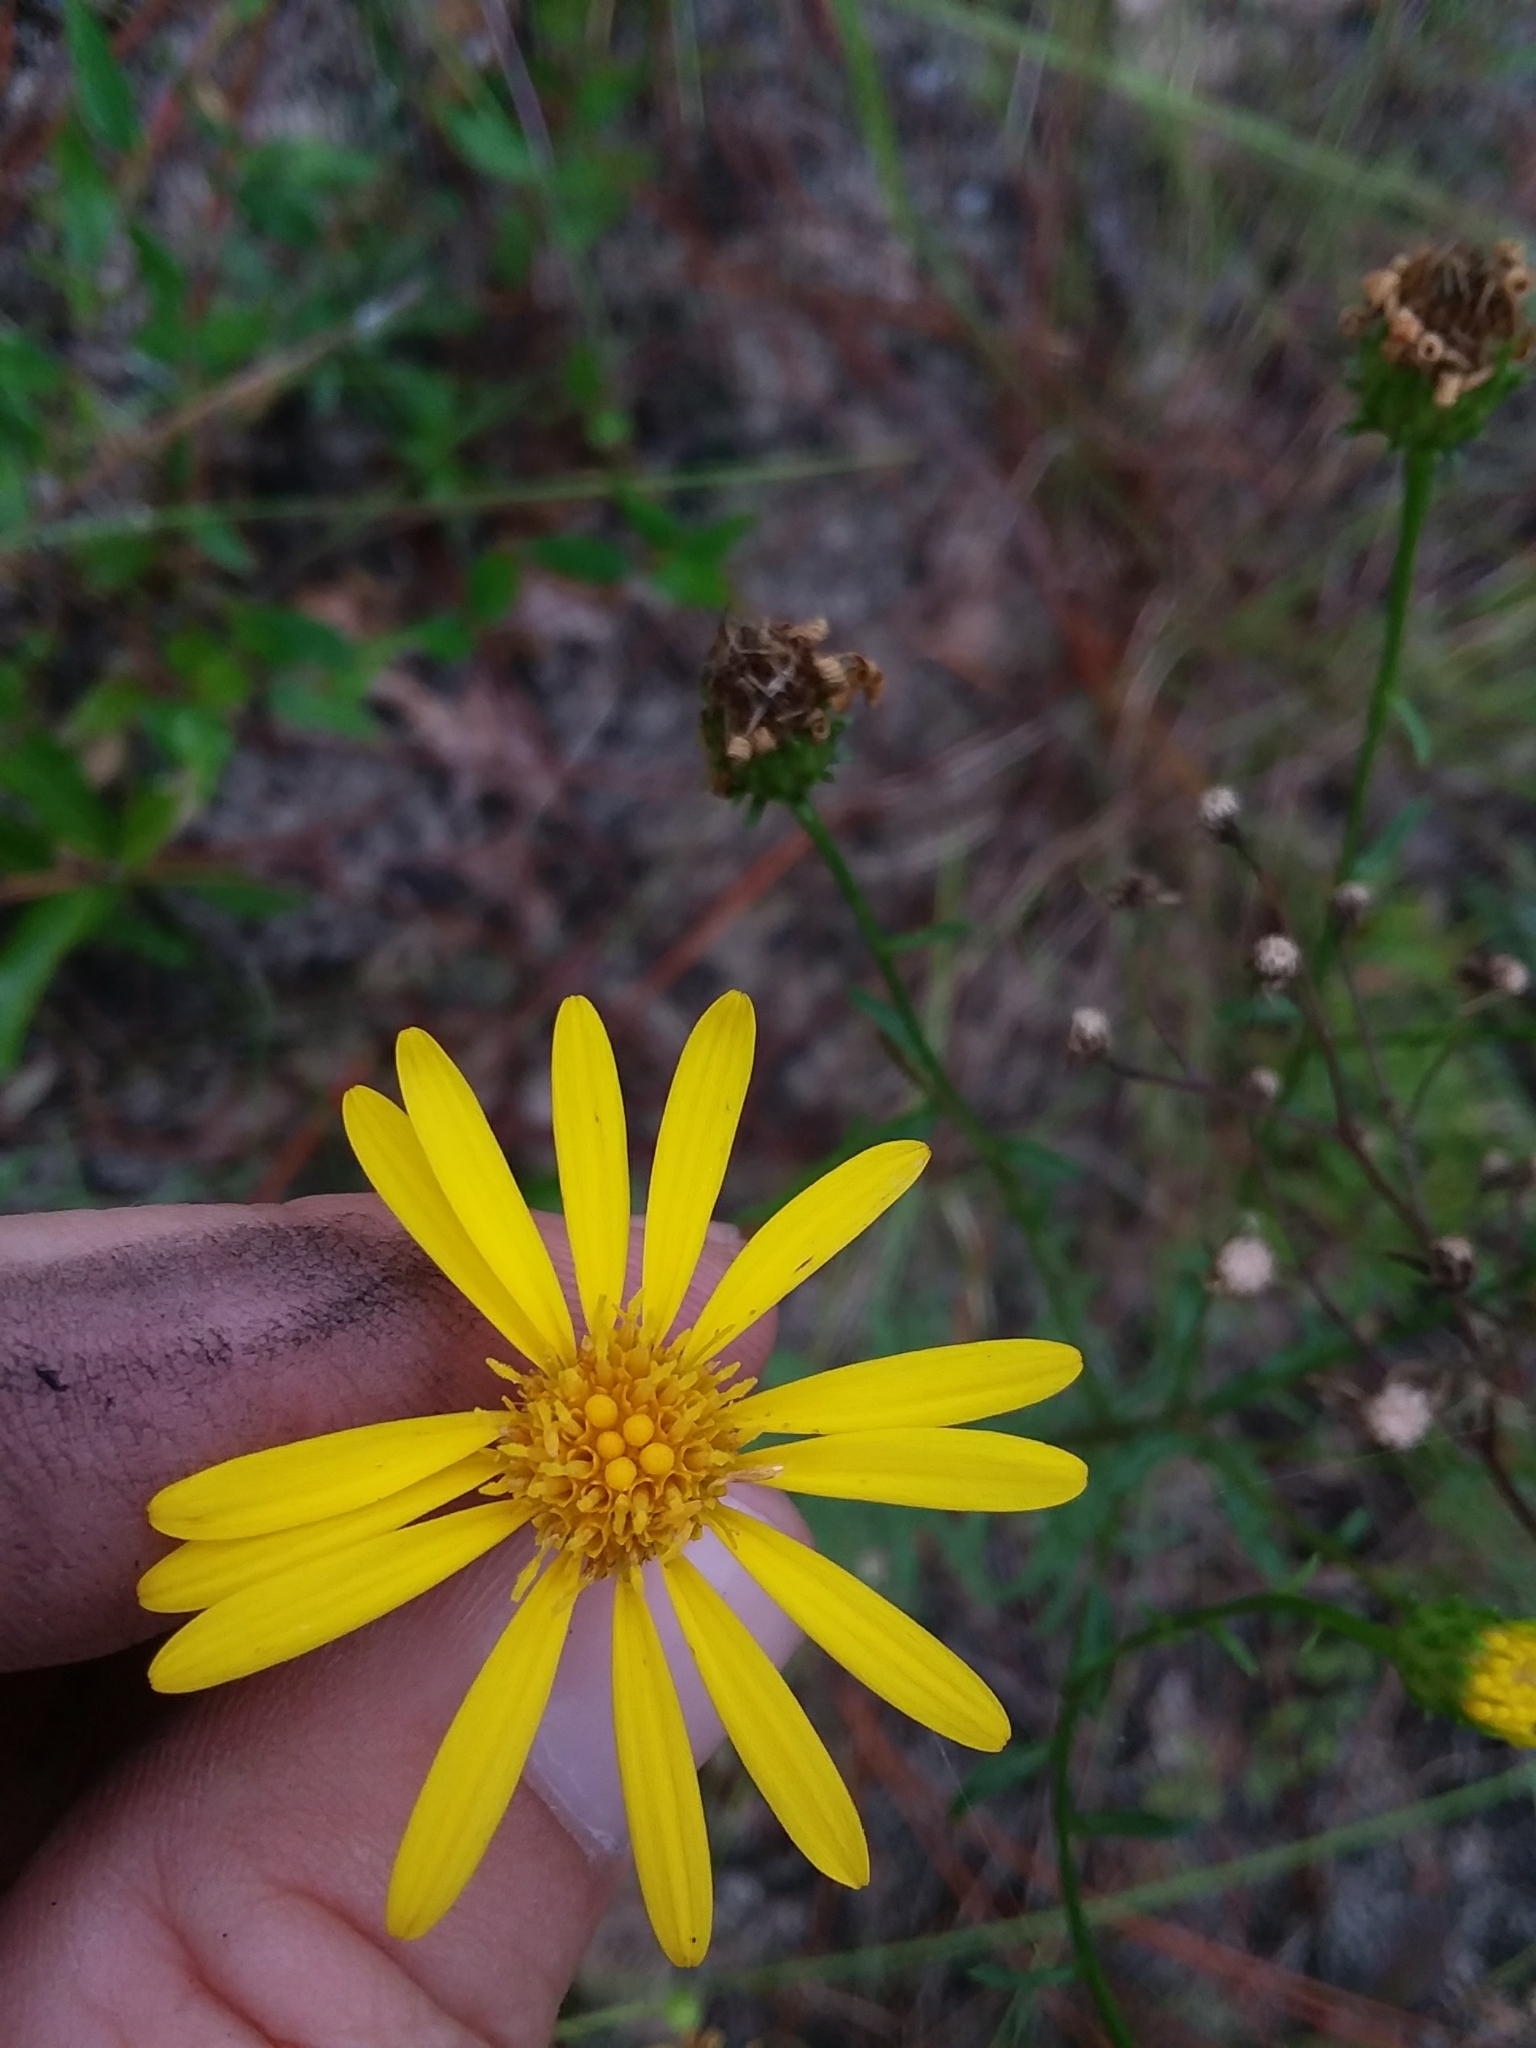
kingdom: Plantae
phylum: Tracheophyta
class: Magnoliopsida
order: Asterales
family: Asteraceae
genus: Chrysopsis
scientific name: Chrysopsis gossypina
